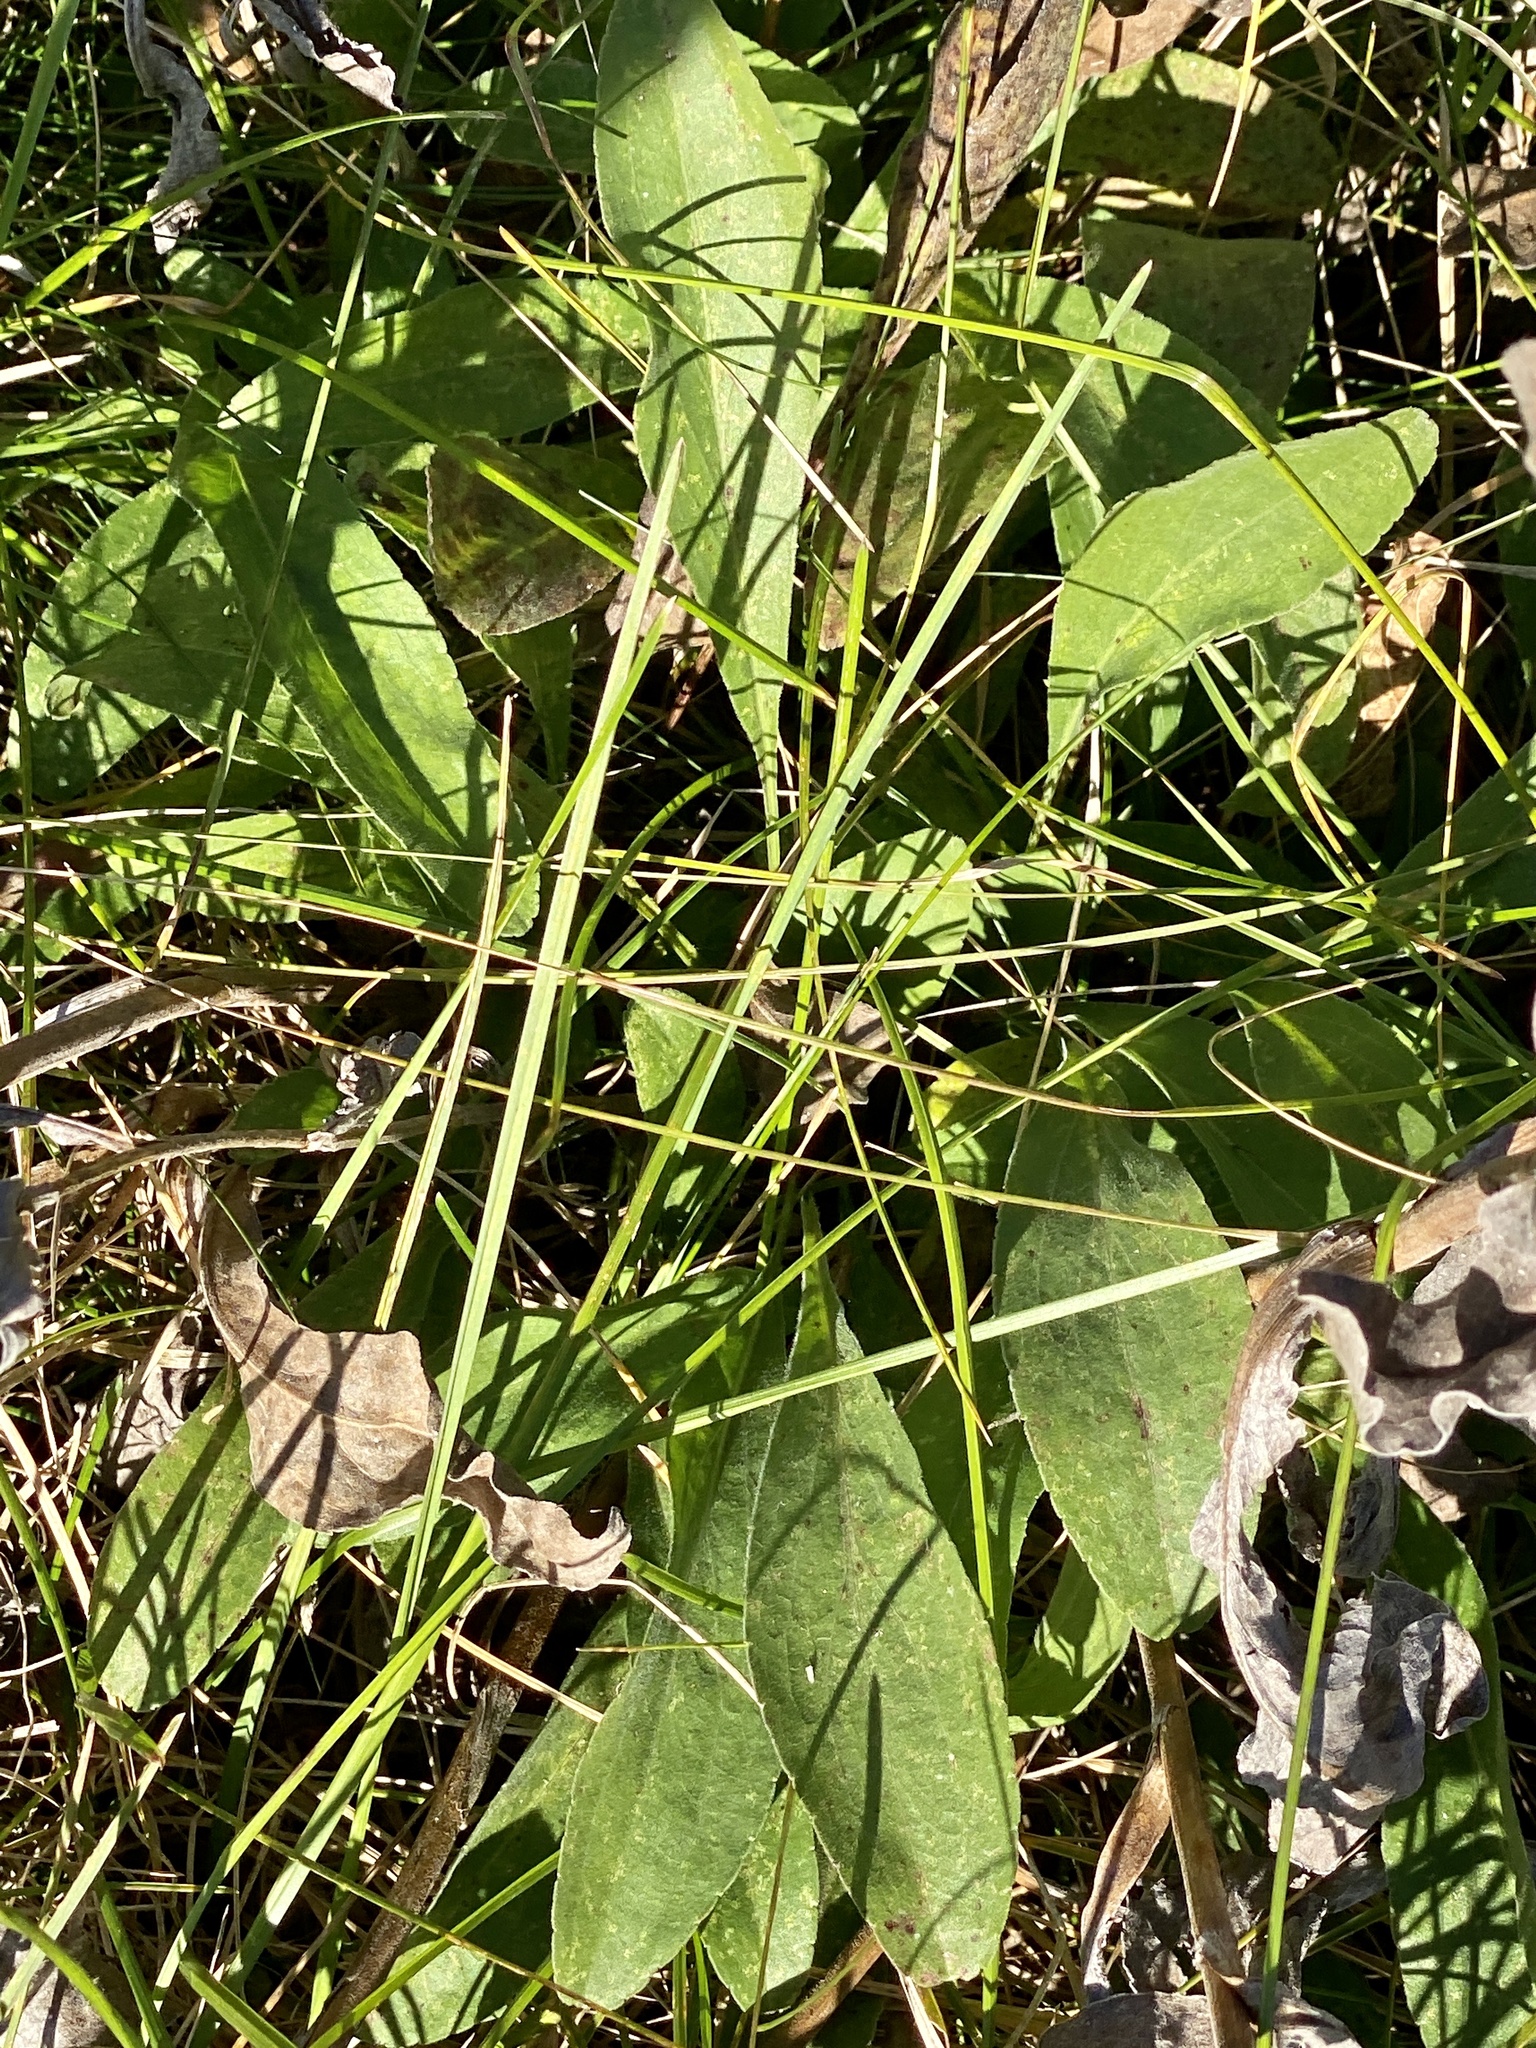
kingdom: Plantae
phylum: Tracheophyta
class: Magnoliopsida
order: Asterales
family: Asteraceae
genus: Solidago
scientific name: Solidago rigida
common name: Rigid goldenrod
